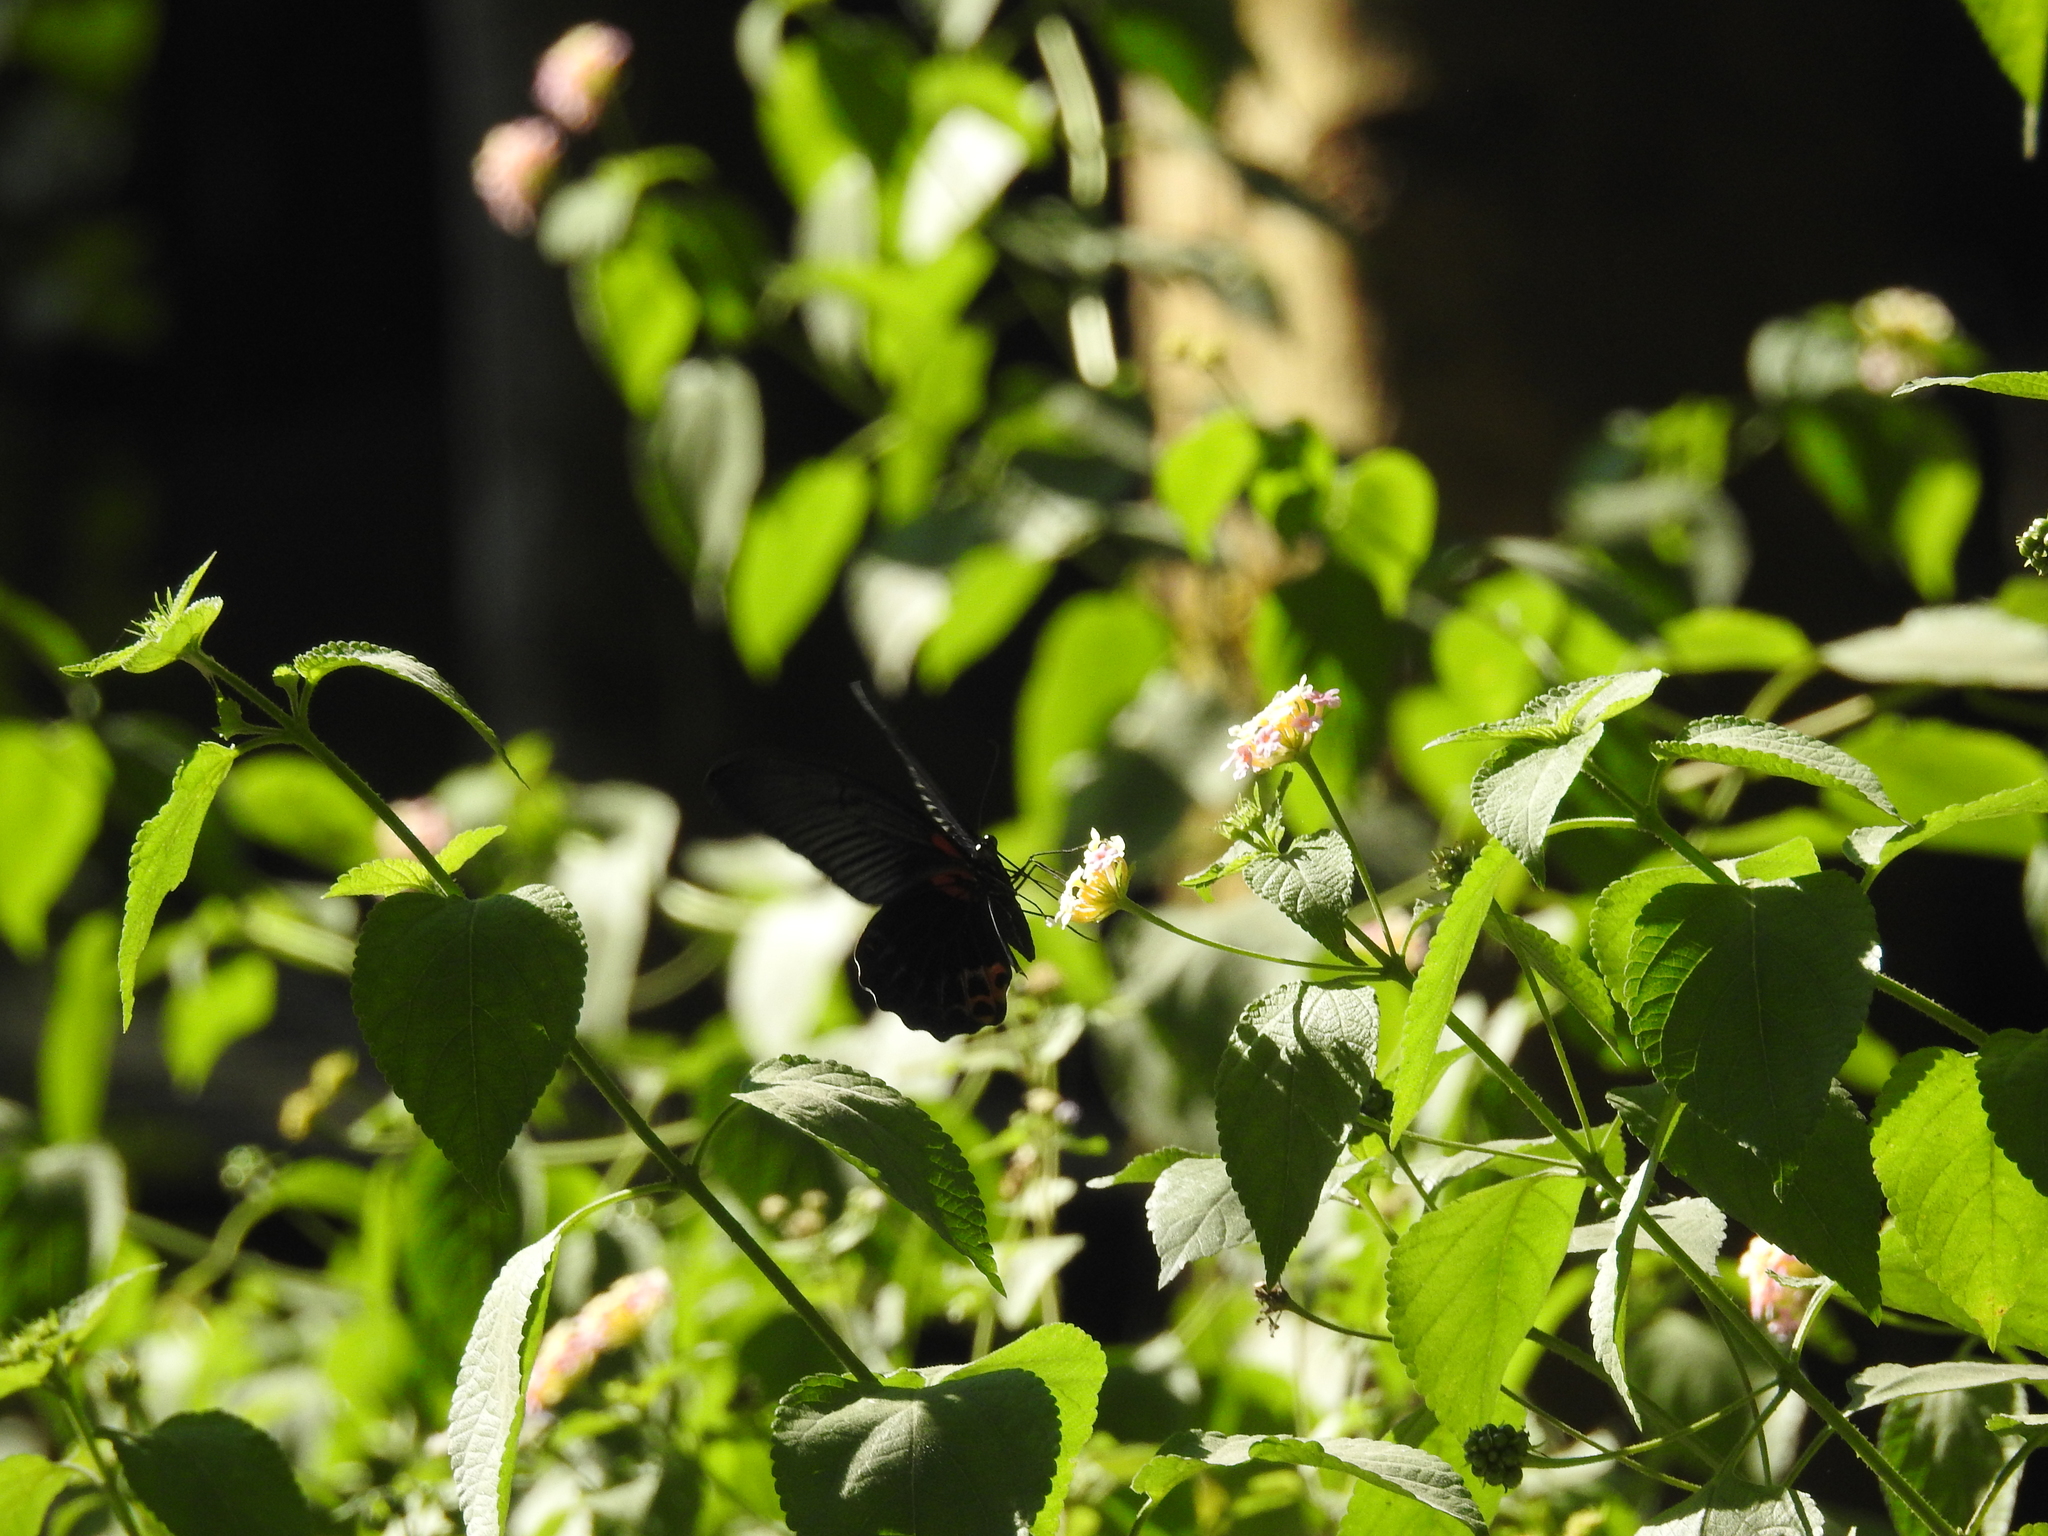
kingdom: Animalia
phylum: Arthropoda
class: Insecta
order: Lepidoptera
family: Papilionidae
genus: Papilio
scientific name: Papilio memnon
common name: Great mormon
